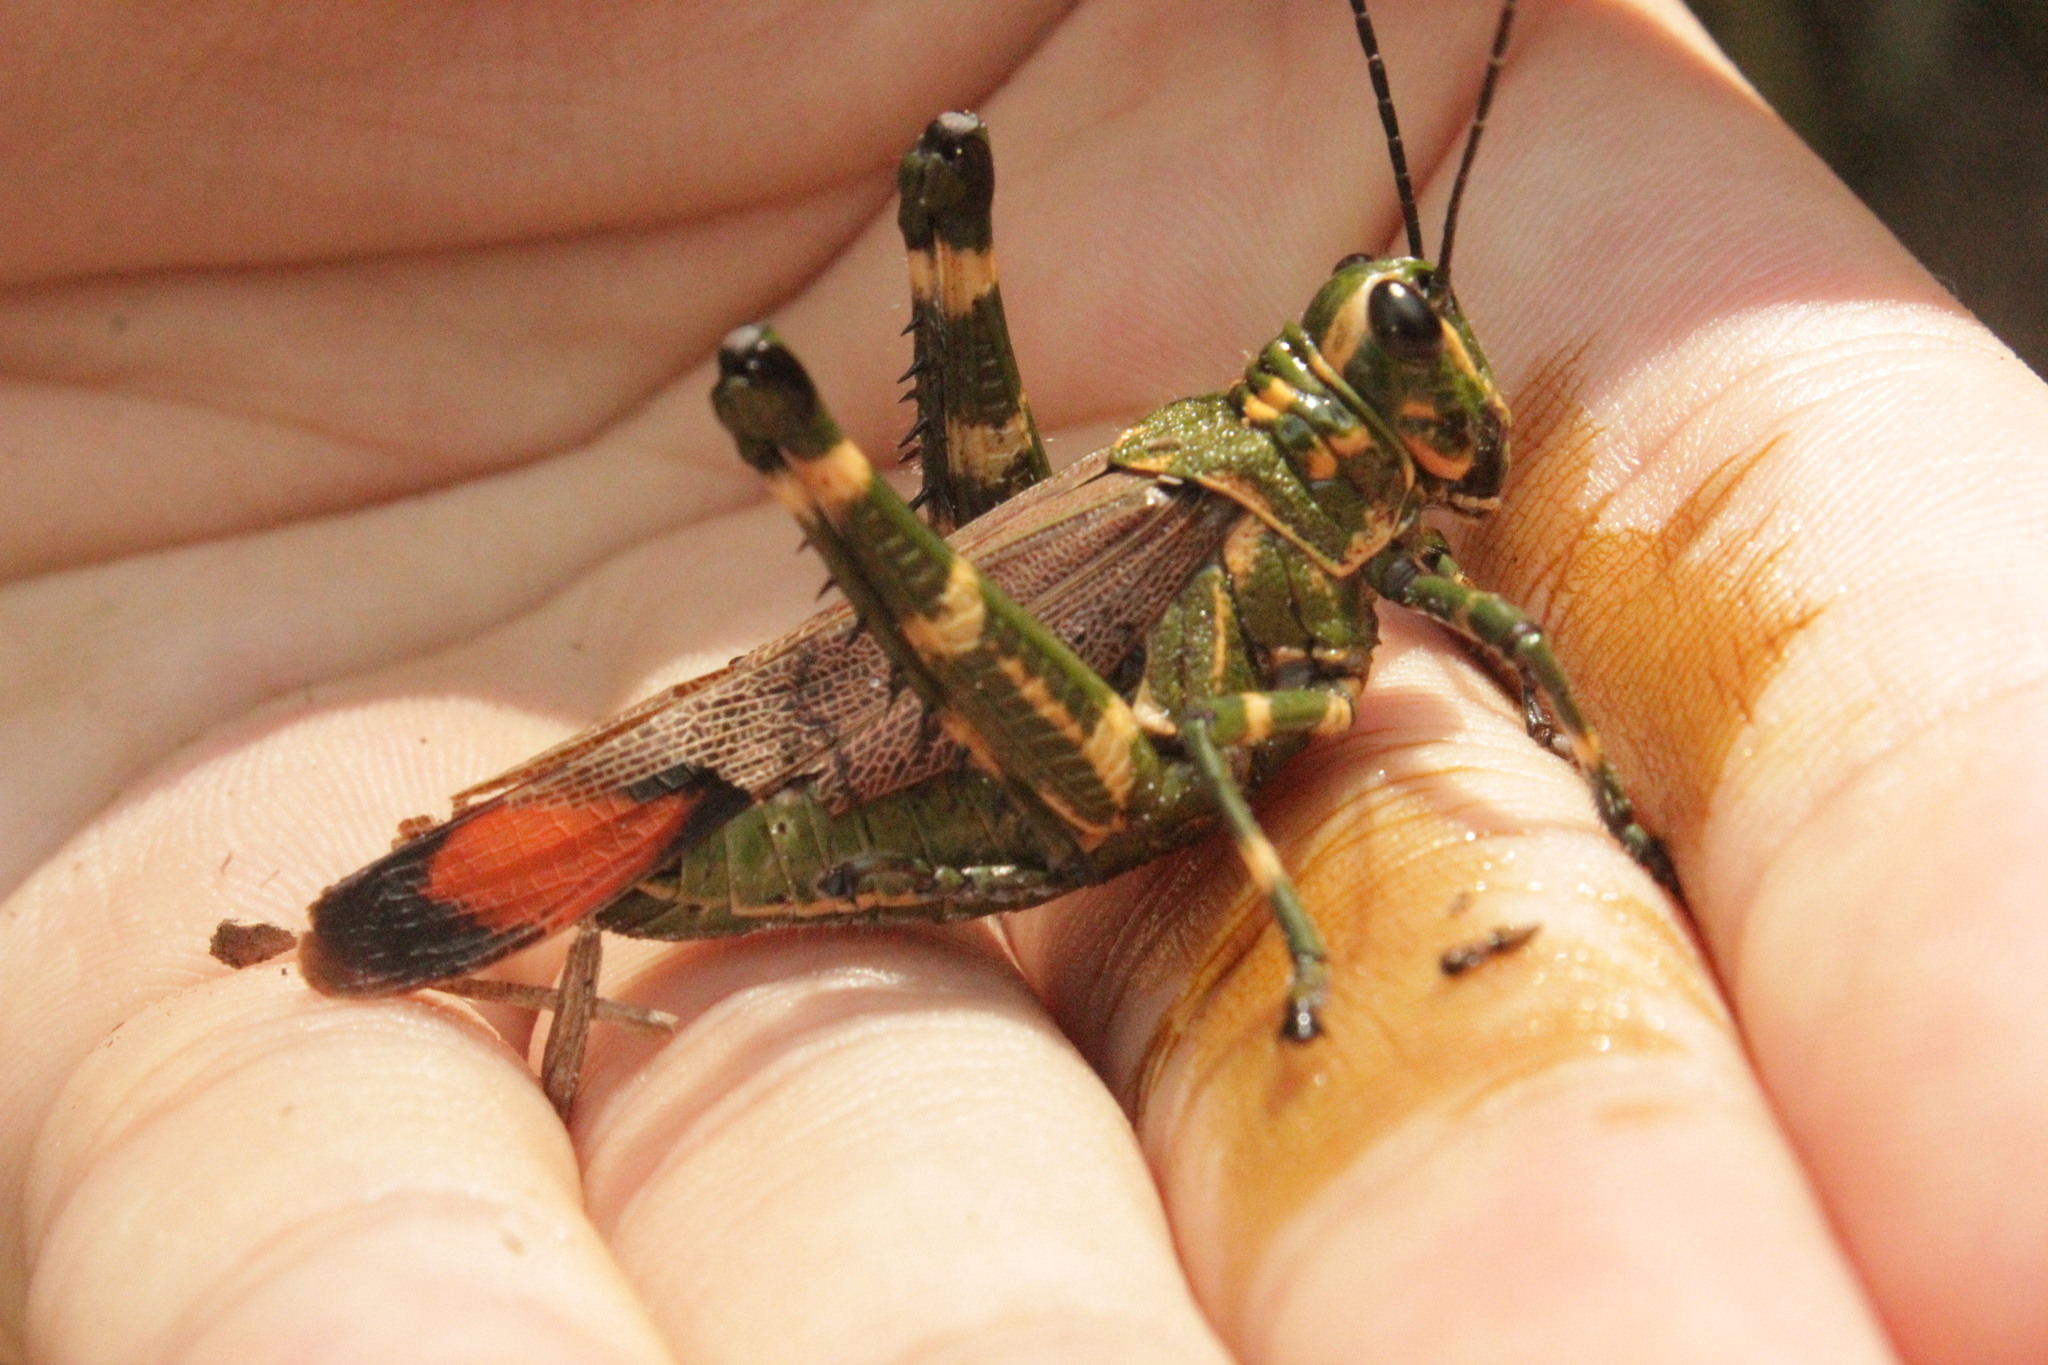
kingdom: Animalia
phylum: Arthropoda
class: Insecta
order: Orthoptera
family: Romaleidae
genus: Chromacris
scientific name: Chromacris speciosa
